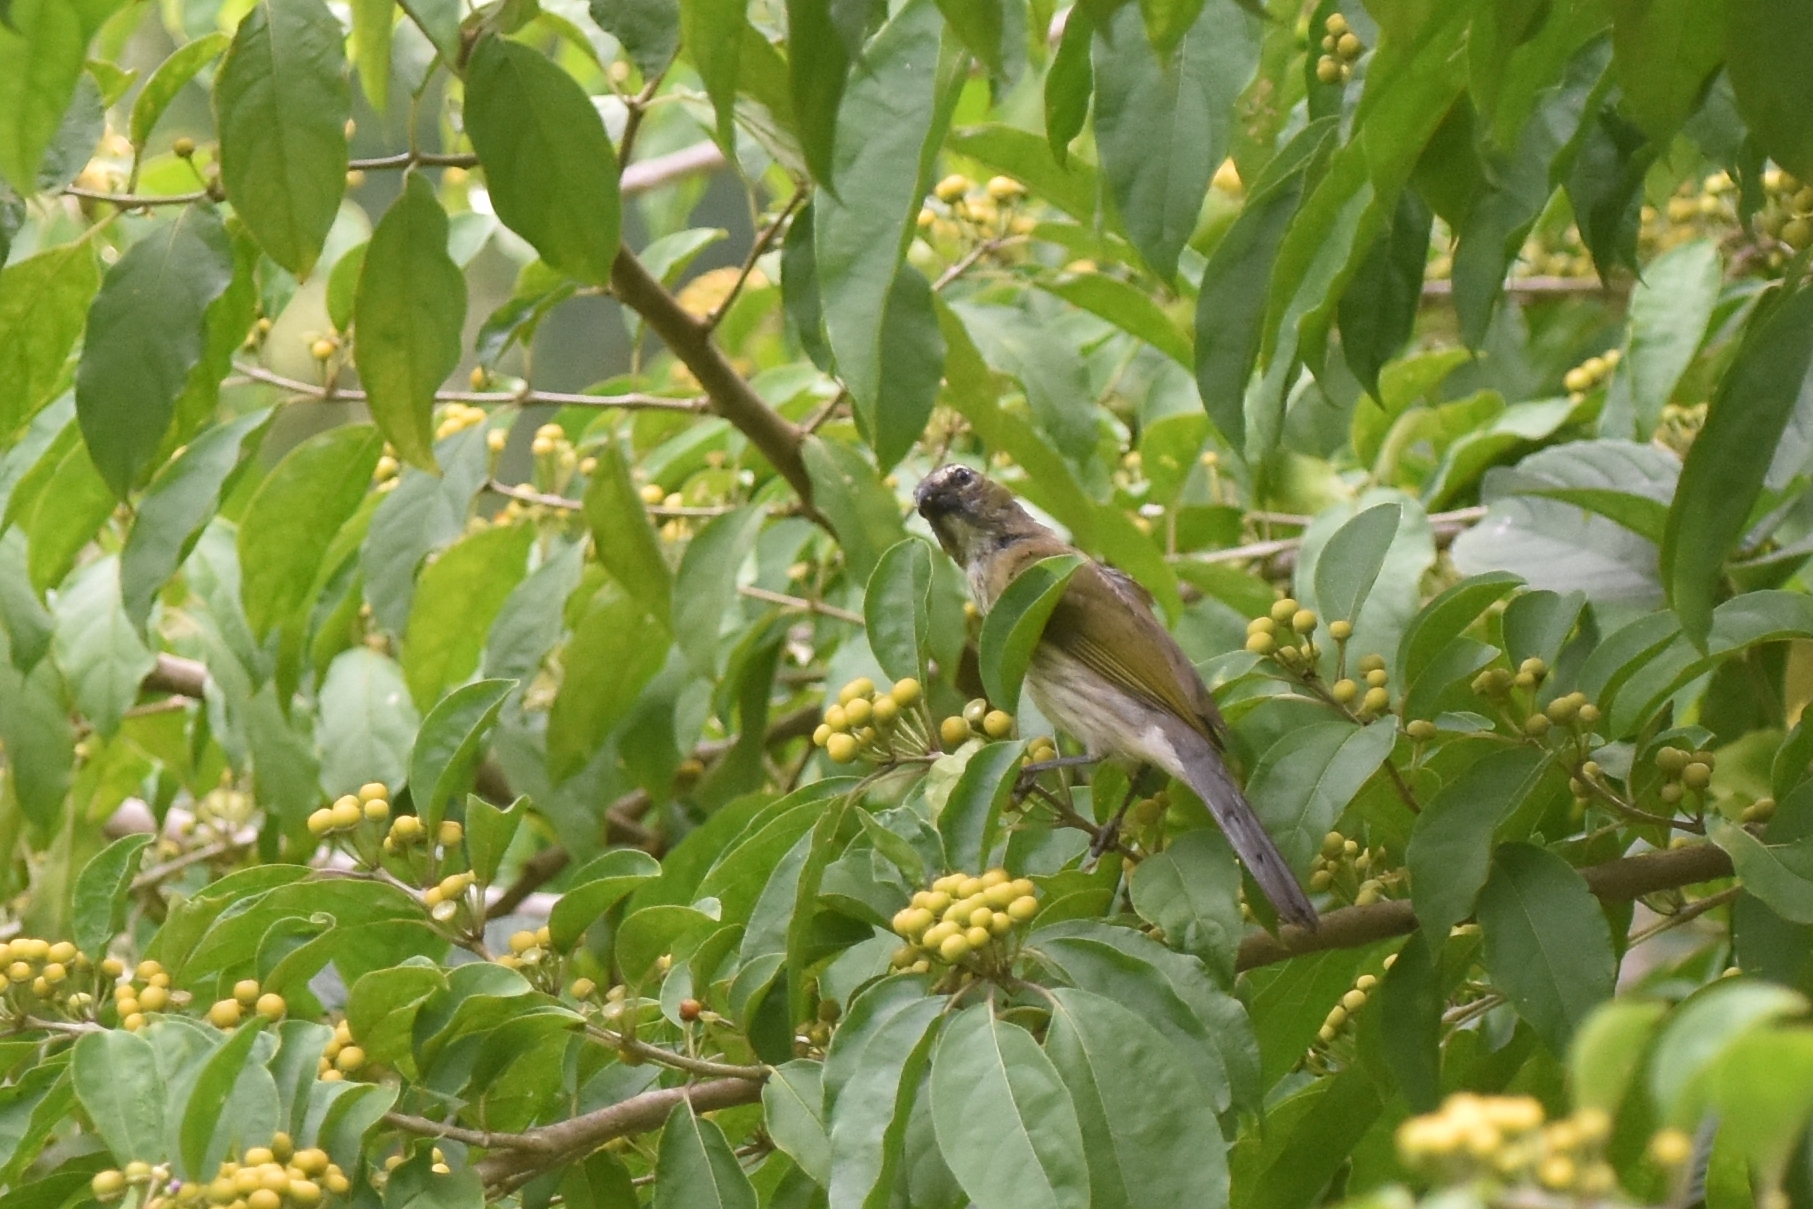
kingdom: Animalia
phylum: Chordata
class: Aves
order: Passeriformes
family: Thraupidae
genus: Saltator
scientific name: Saltator striatipectus
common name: Streaked saltator
